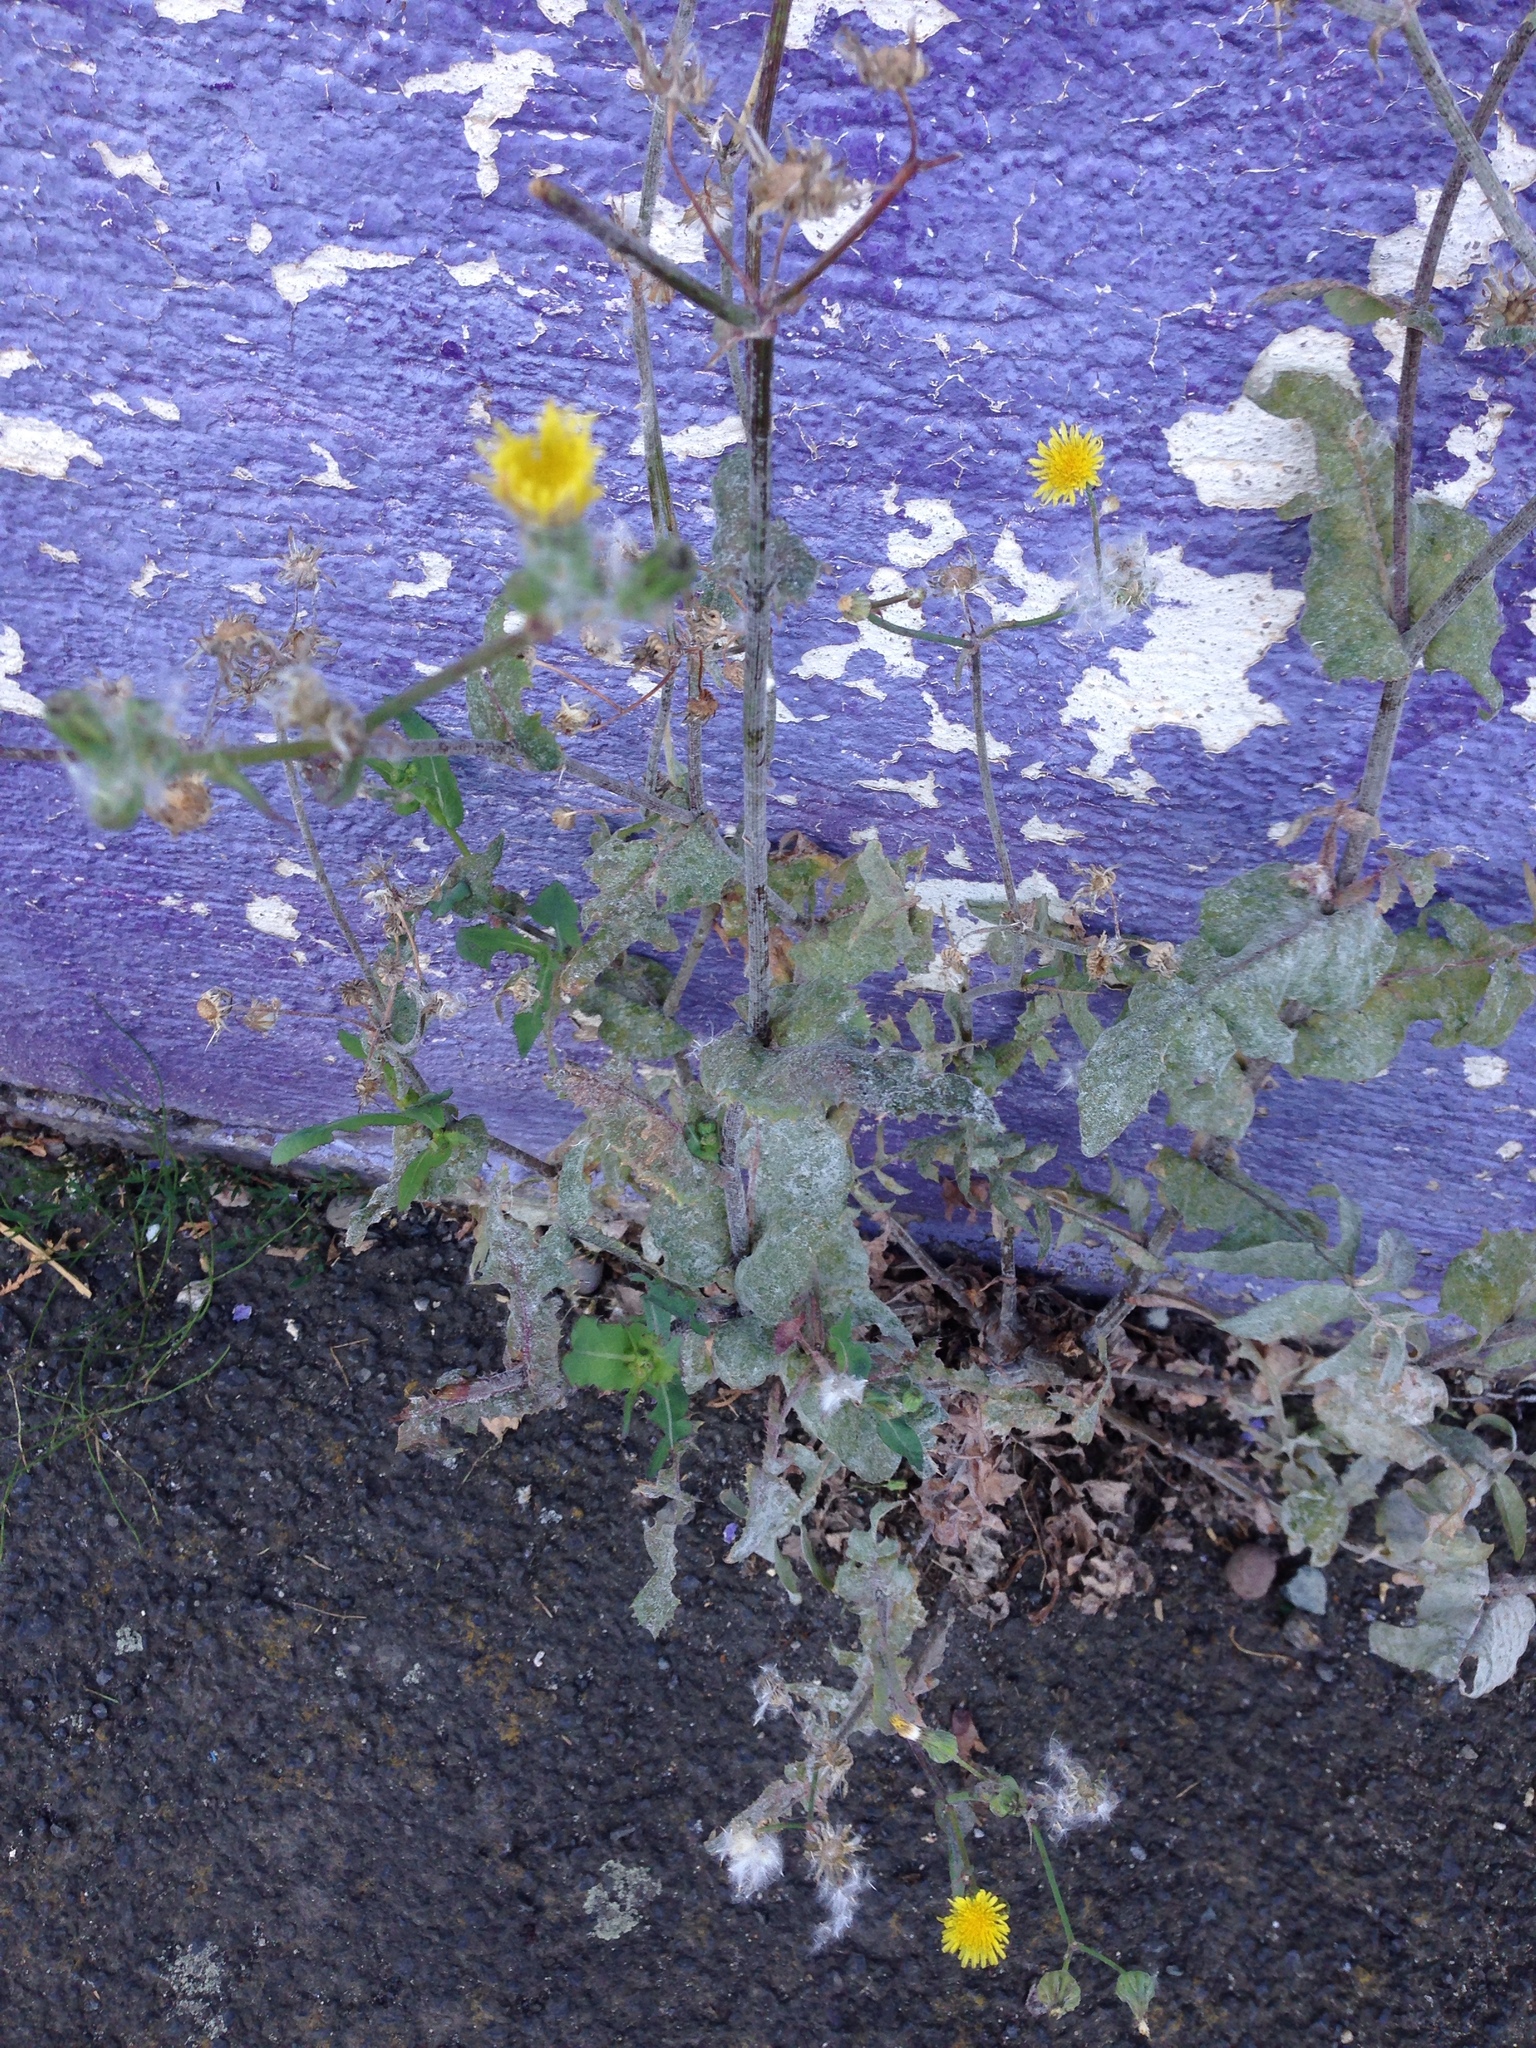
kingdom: Plantae
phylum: Tracheophyta
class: Magnoliopsida
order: Asterales
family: Asteraceae
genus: Sonchus
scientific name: Sonchus oleraceus
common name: Common sowthistle
